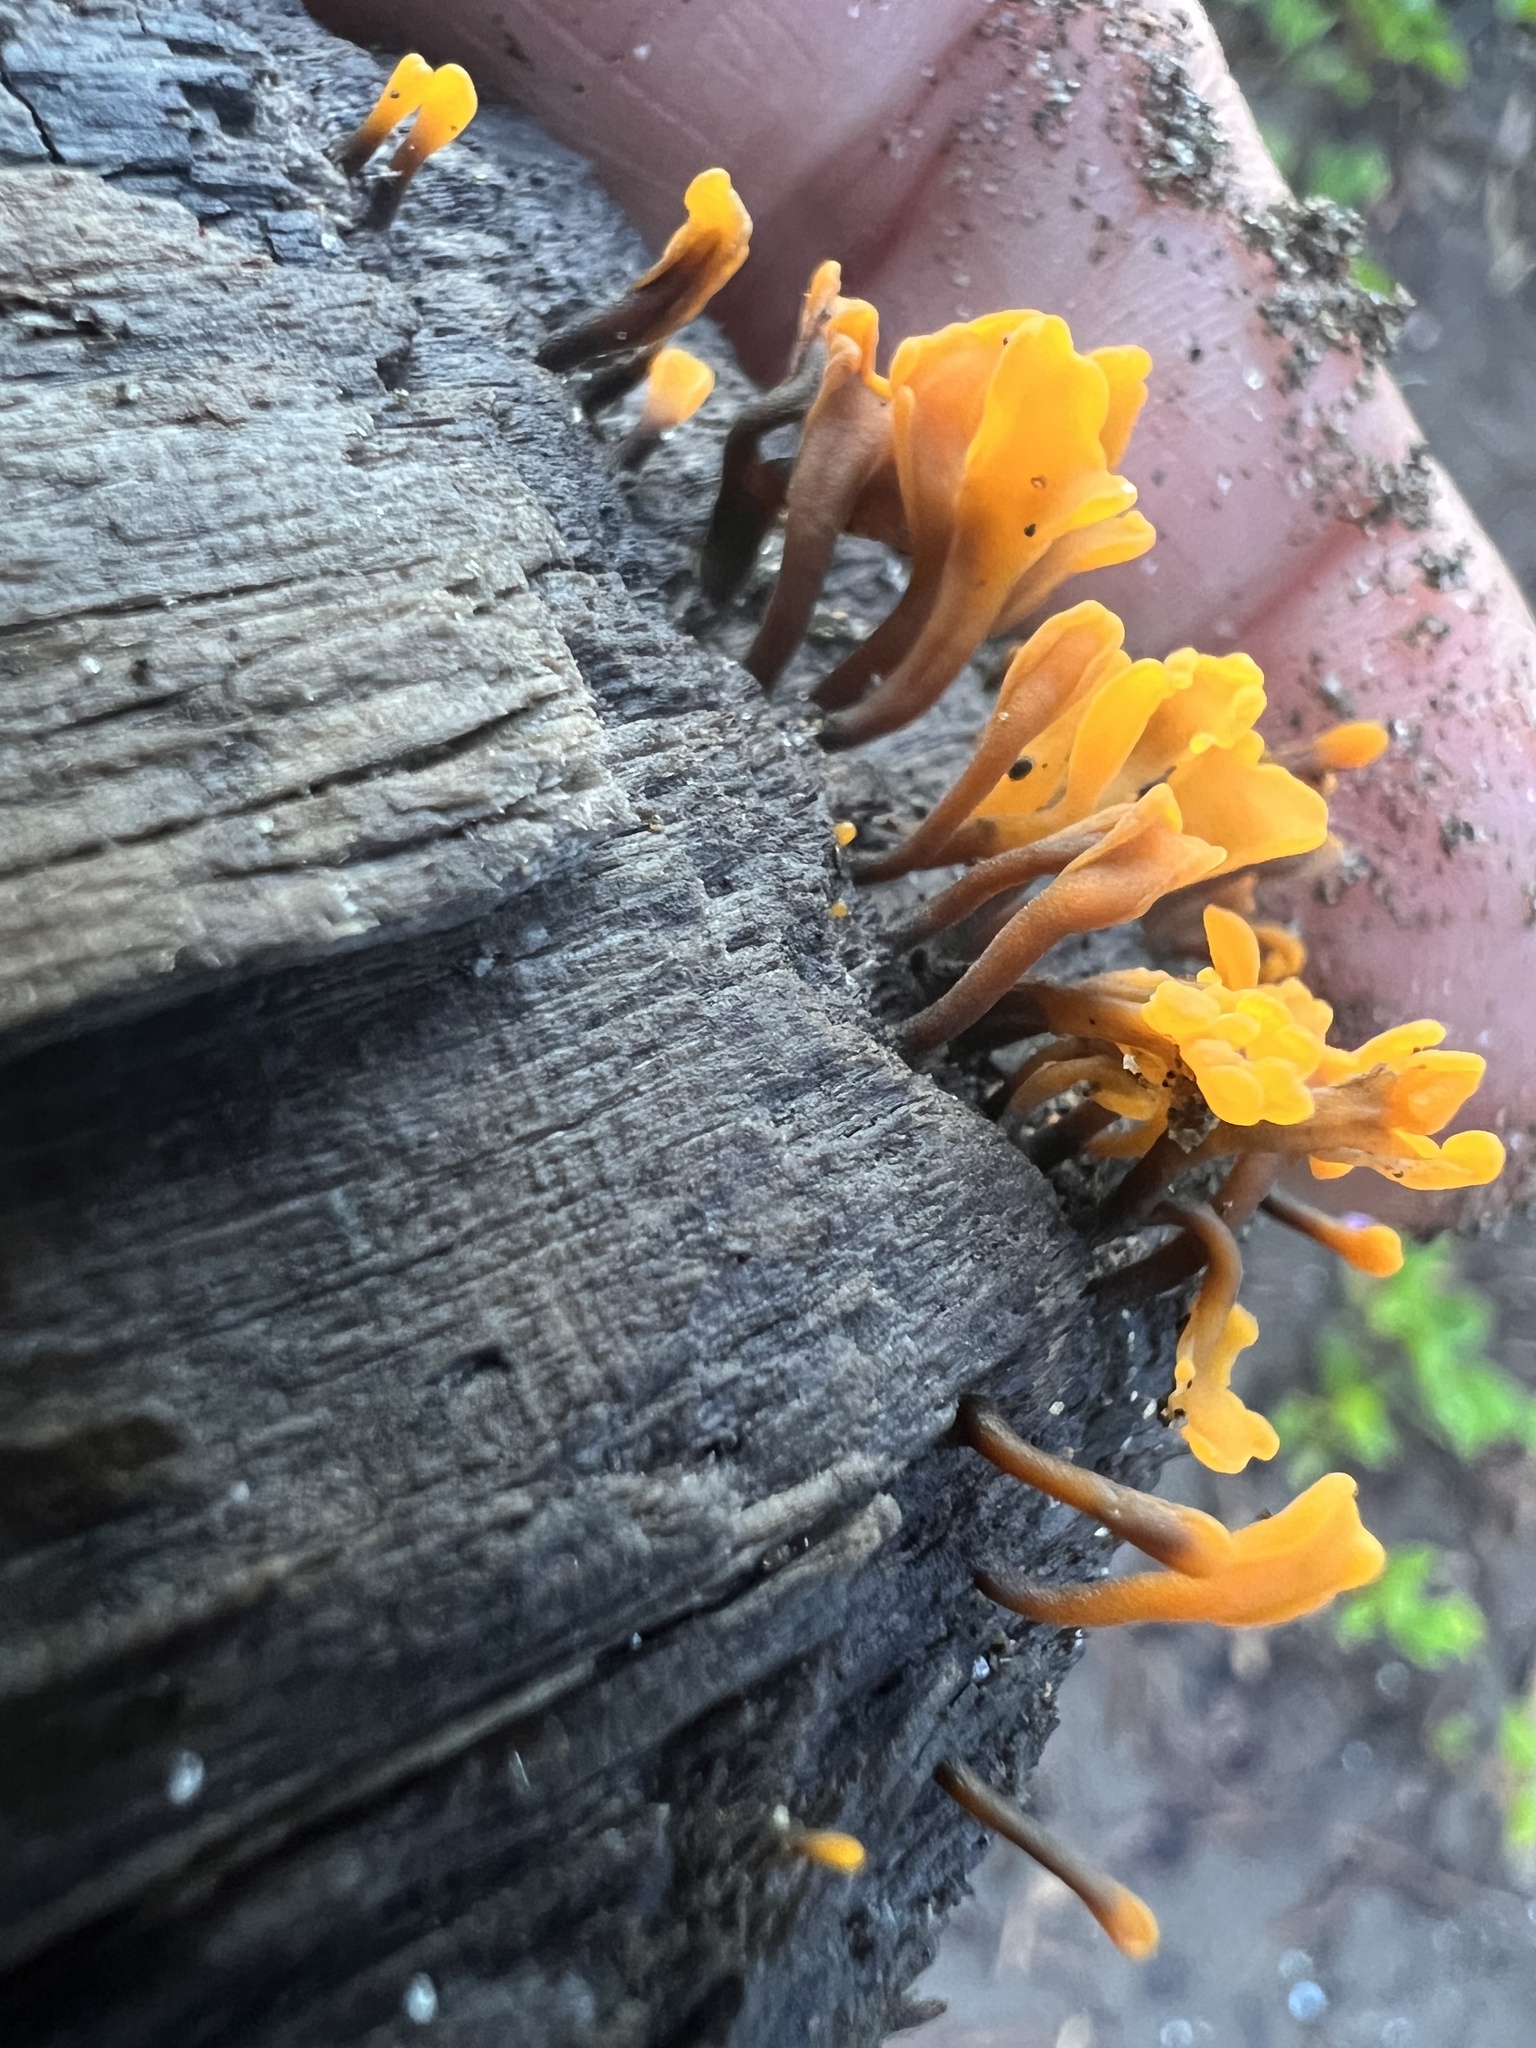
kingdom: Fungi
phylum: Basidiomycota
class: Dacrymycetes
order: Dacrymycetales
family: Dacrymycetaceae
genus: Dacrymyces
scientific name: Dacrymyces spathularius
